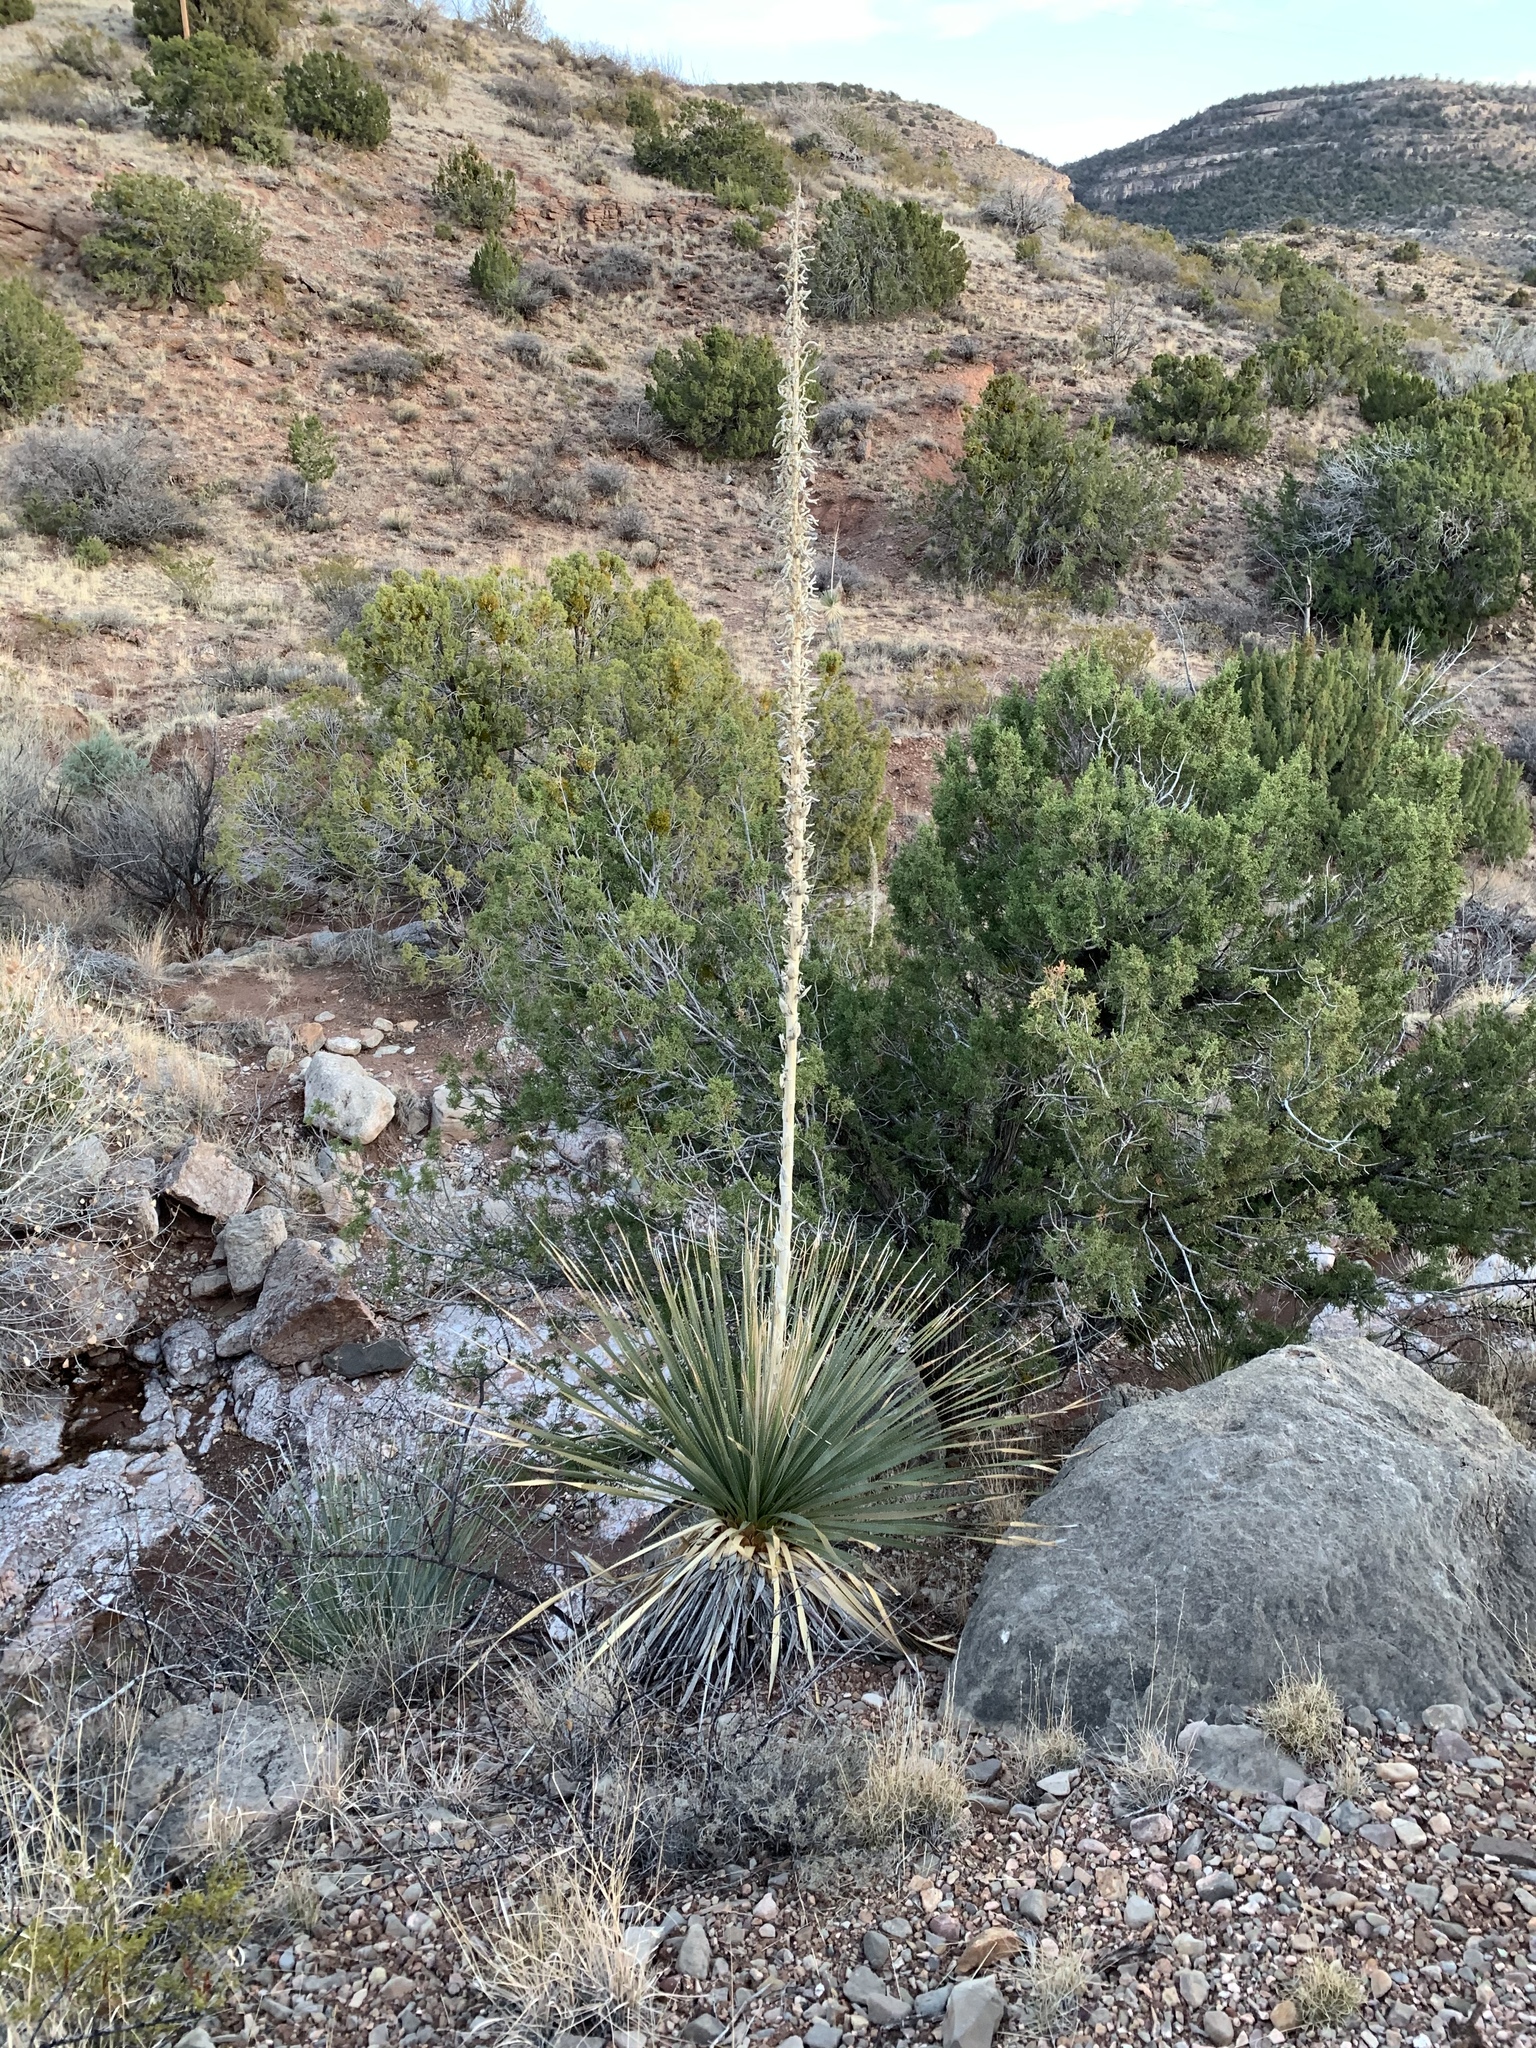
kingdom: Plantae
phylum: Tracheophyta
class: Liliopsida
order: Asparagales
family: Asparagaceae
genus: Dasylirion
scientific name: Dasylirion wheeleri
